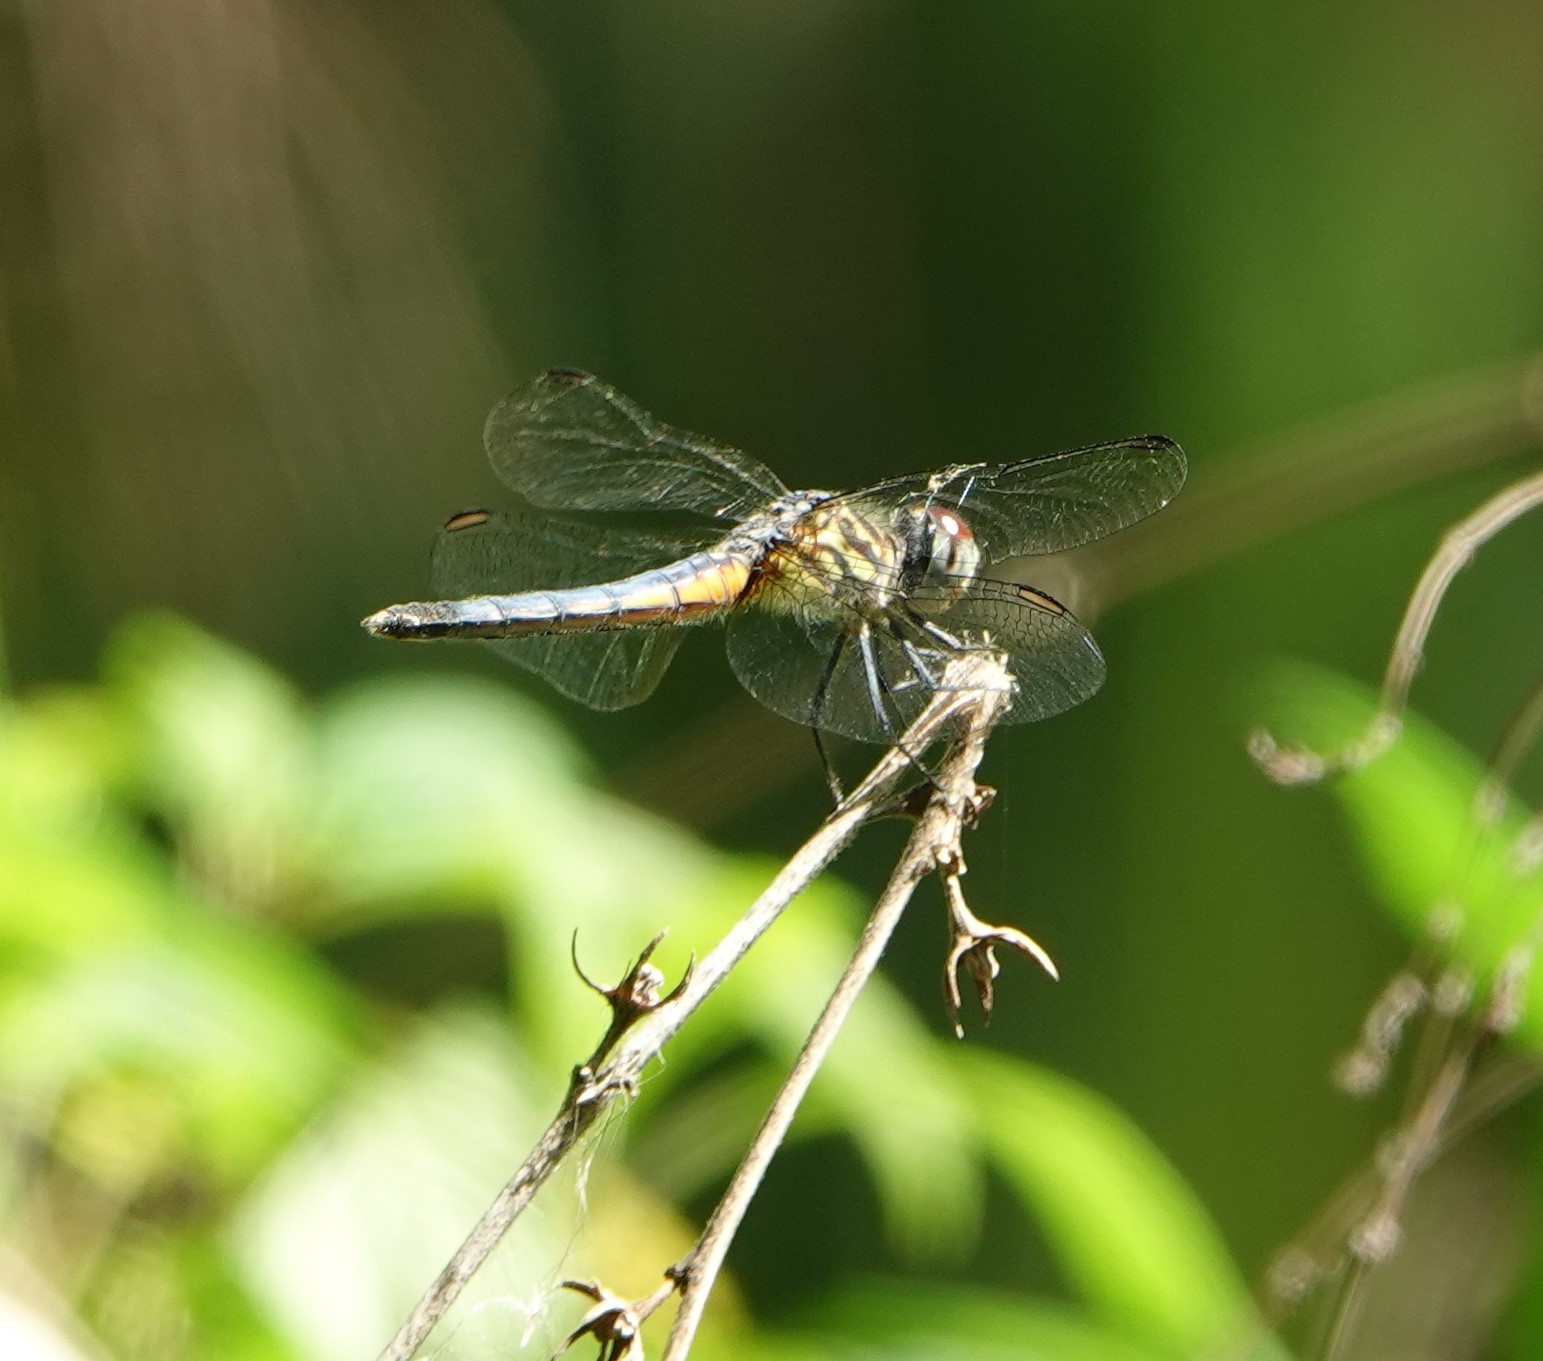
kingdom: Animalia
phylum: Arthropoda
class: Insecta
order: Odonata
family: Libellulidae
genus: Pachydiplax
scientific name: Pachydiplax longipennis
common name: Blue dasher
